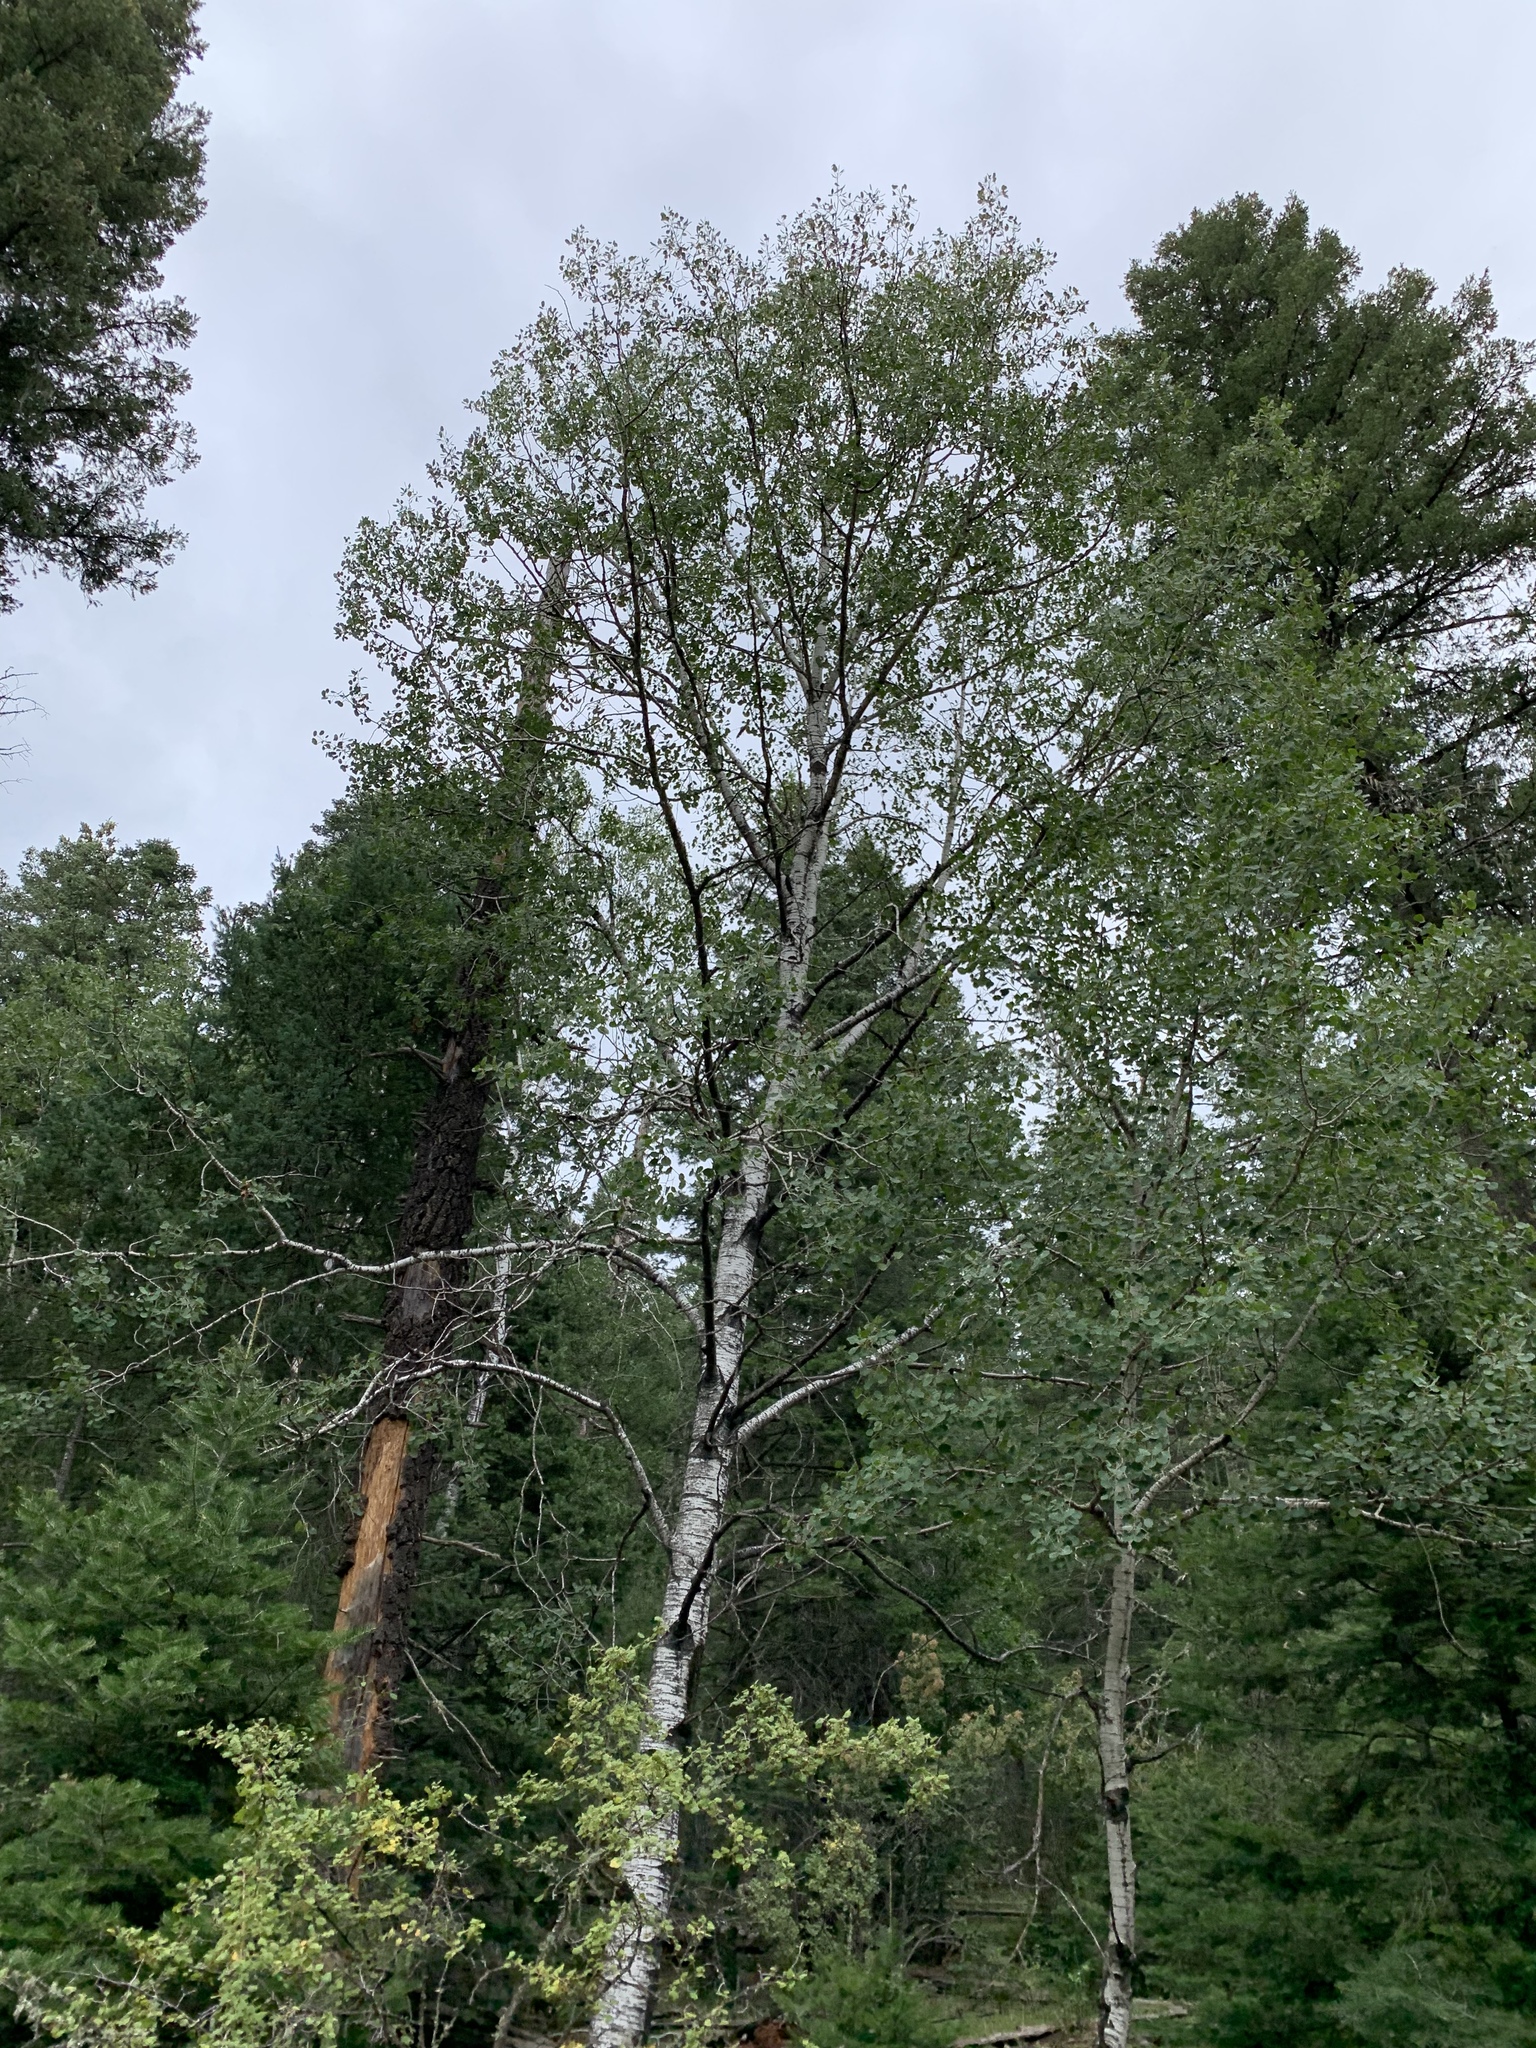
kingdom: Plantae
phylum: Tracheophyta
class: Magnoliopsida
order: Malpighiales
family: Salicaceae
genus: Populus
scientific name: Populus tremuloides
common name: Quaking aspen
